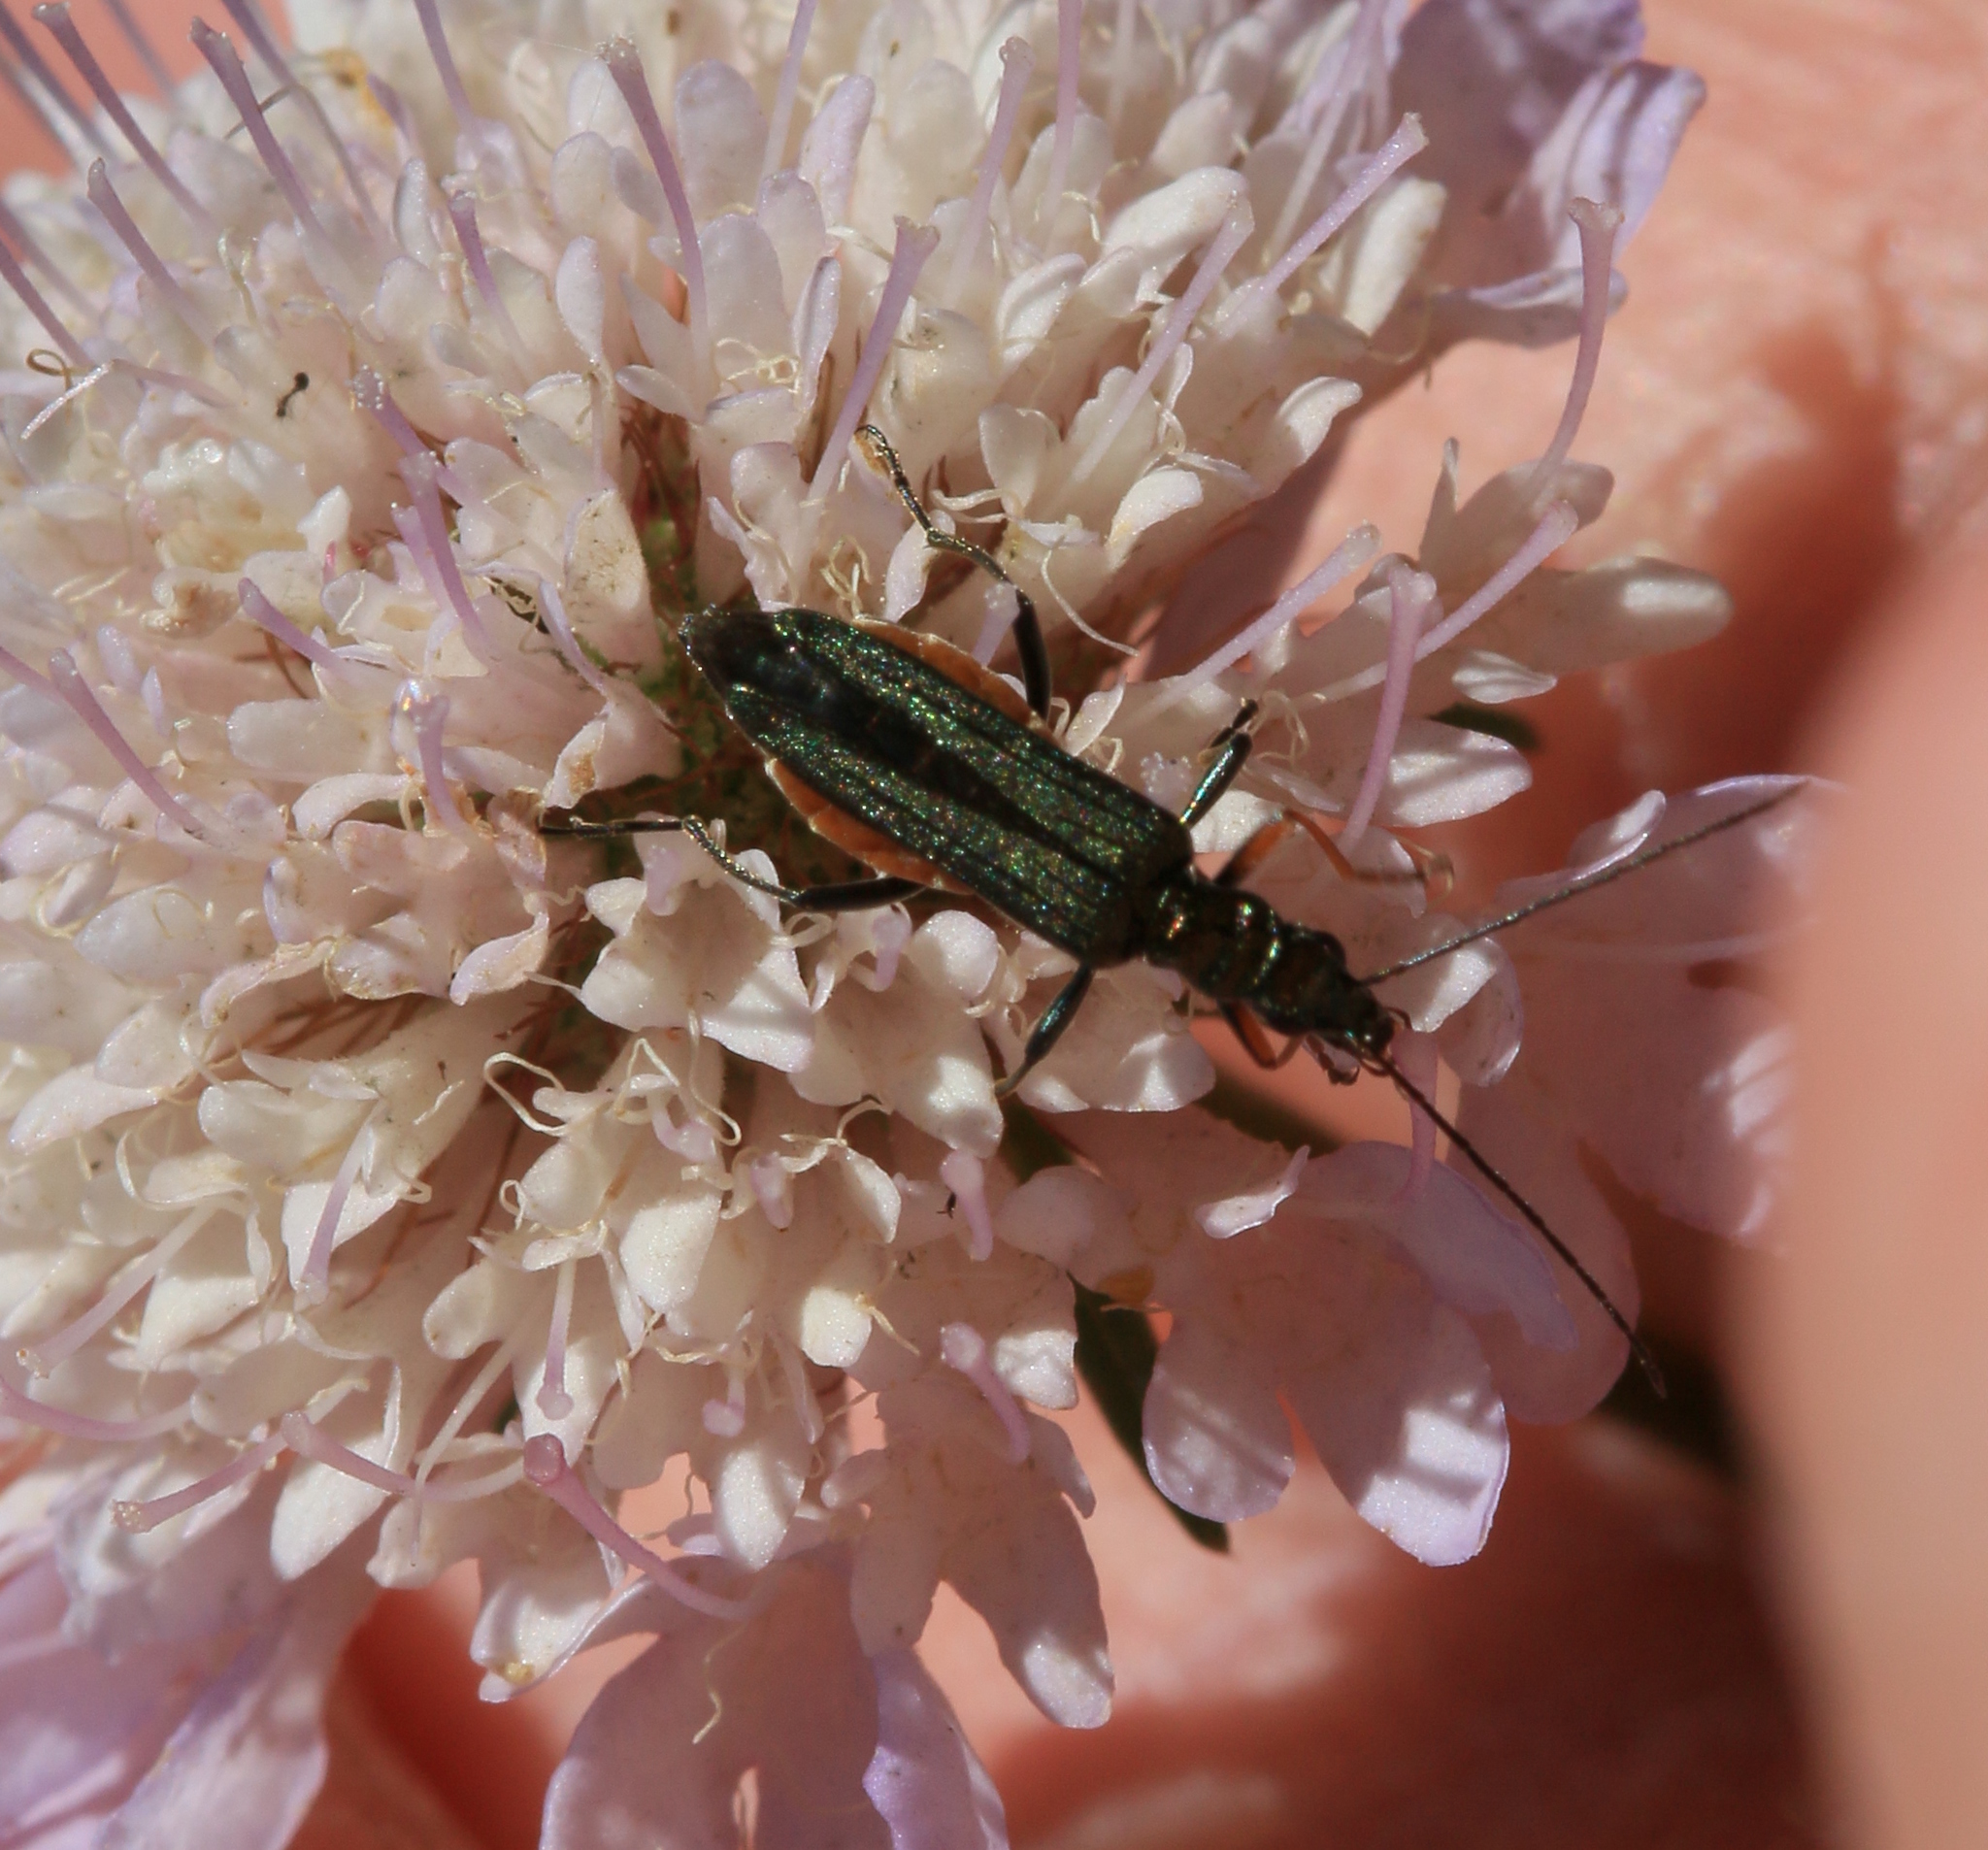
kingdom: Animalia
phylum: Arthropoda
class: Insecta
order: Coleoptera
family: Oedemeridae
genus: Oedemera
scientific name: Oedemera flavipes
